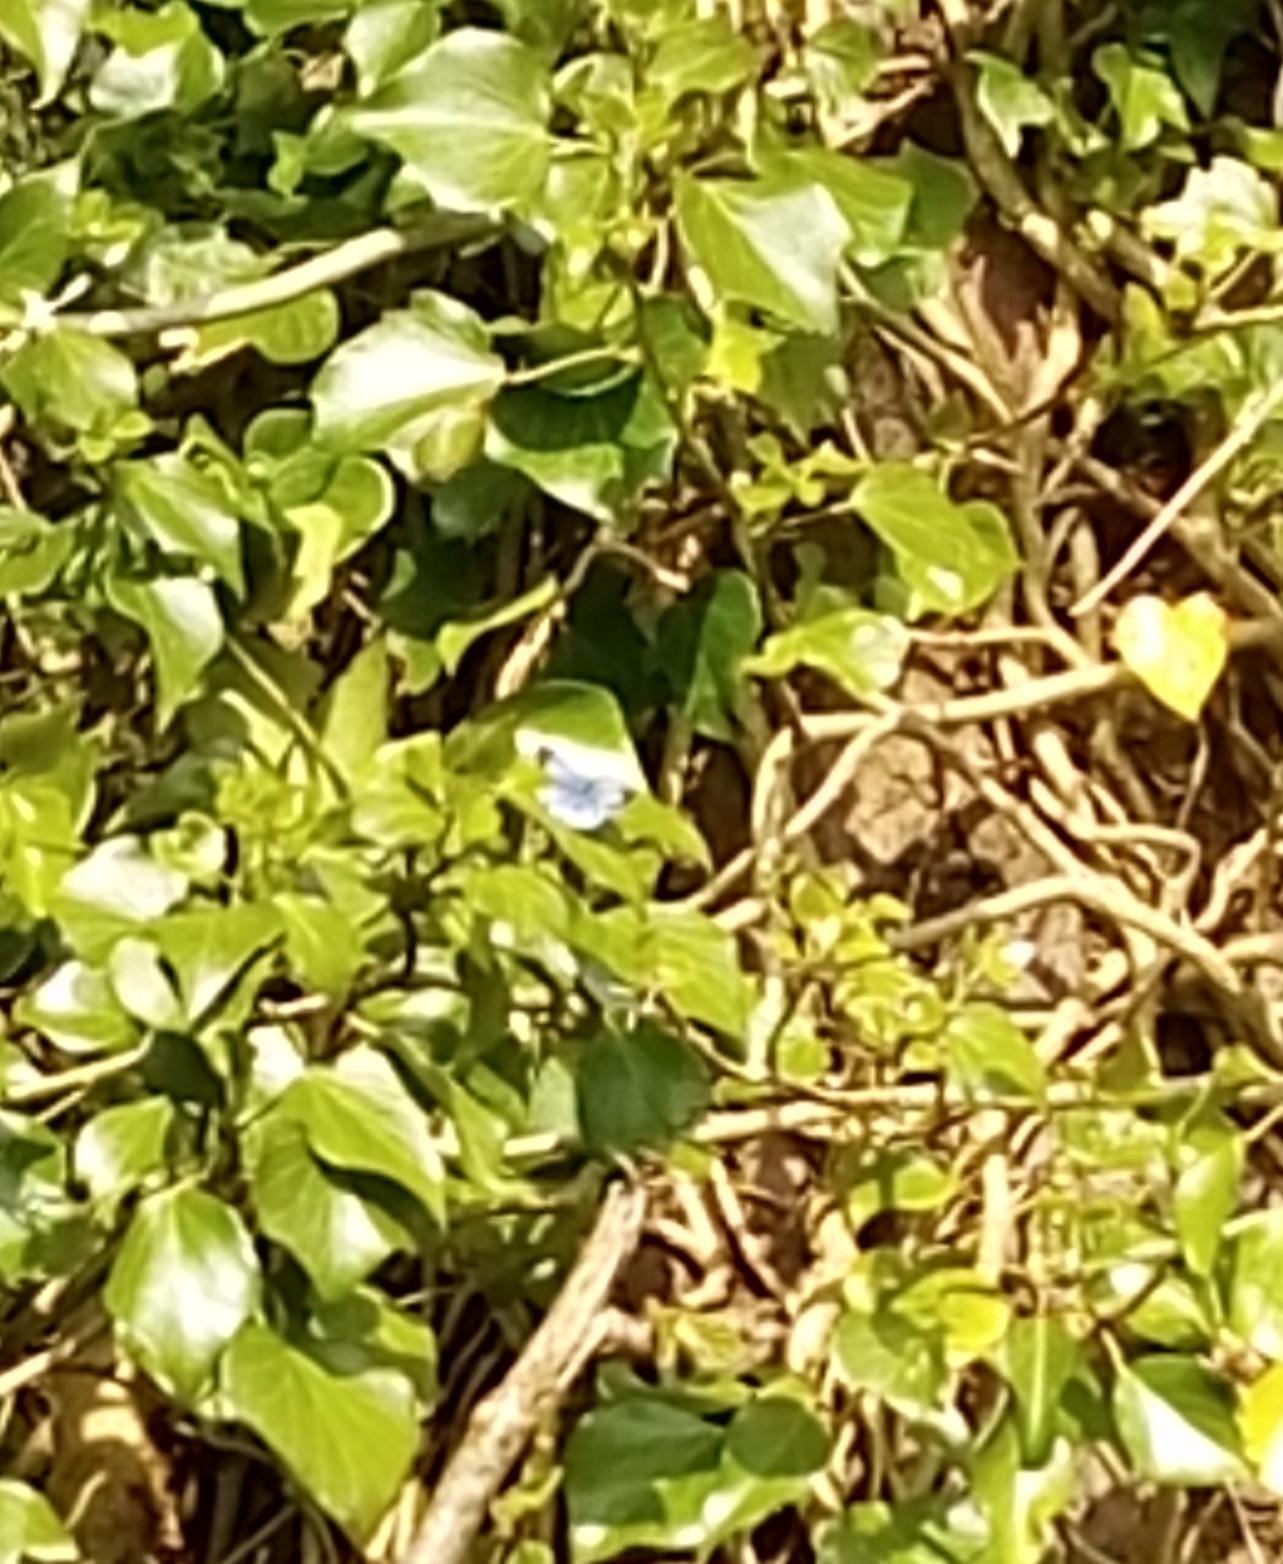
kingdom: Animalia
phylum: Arthropoda
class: Insecta
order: Lepidoptera
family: Lycaenidae
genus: Celastrina
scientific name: Celastrina argiolus
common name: Holly blue
